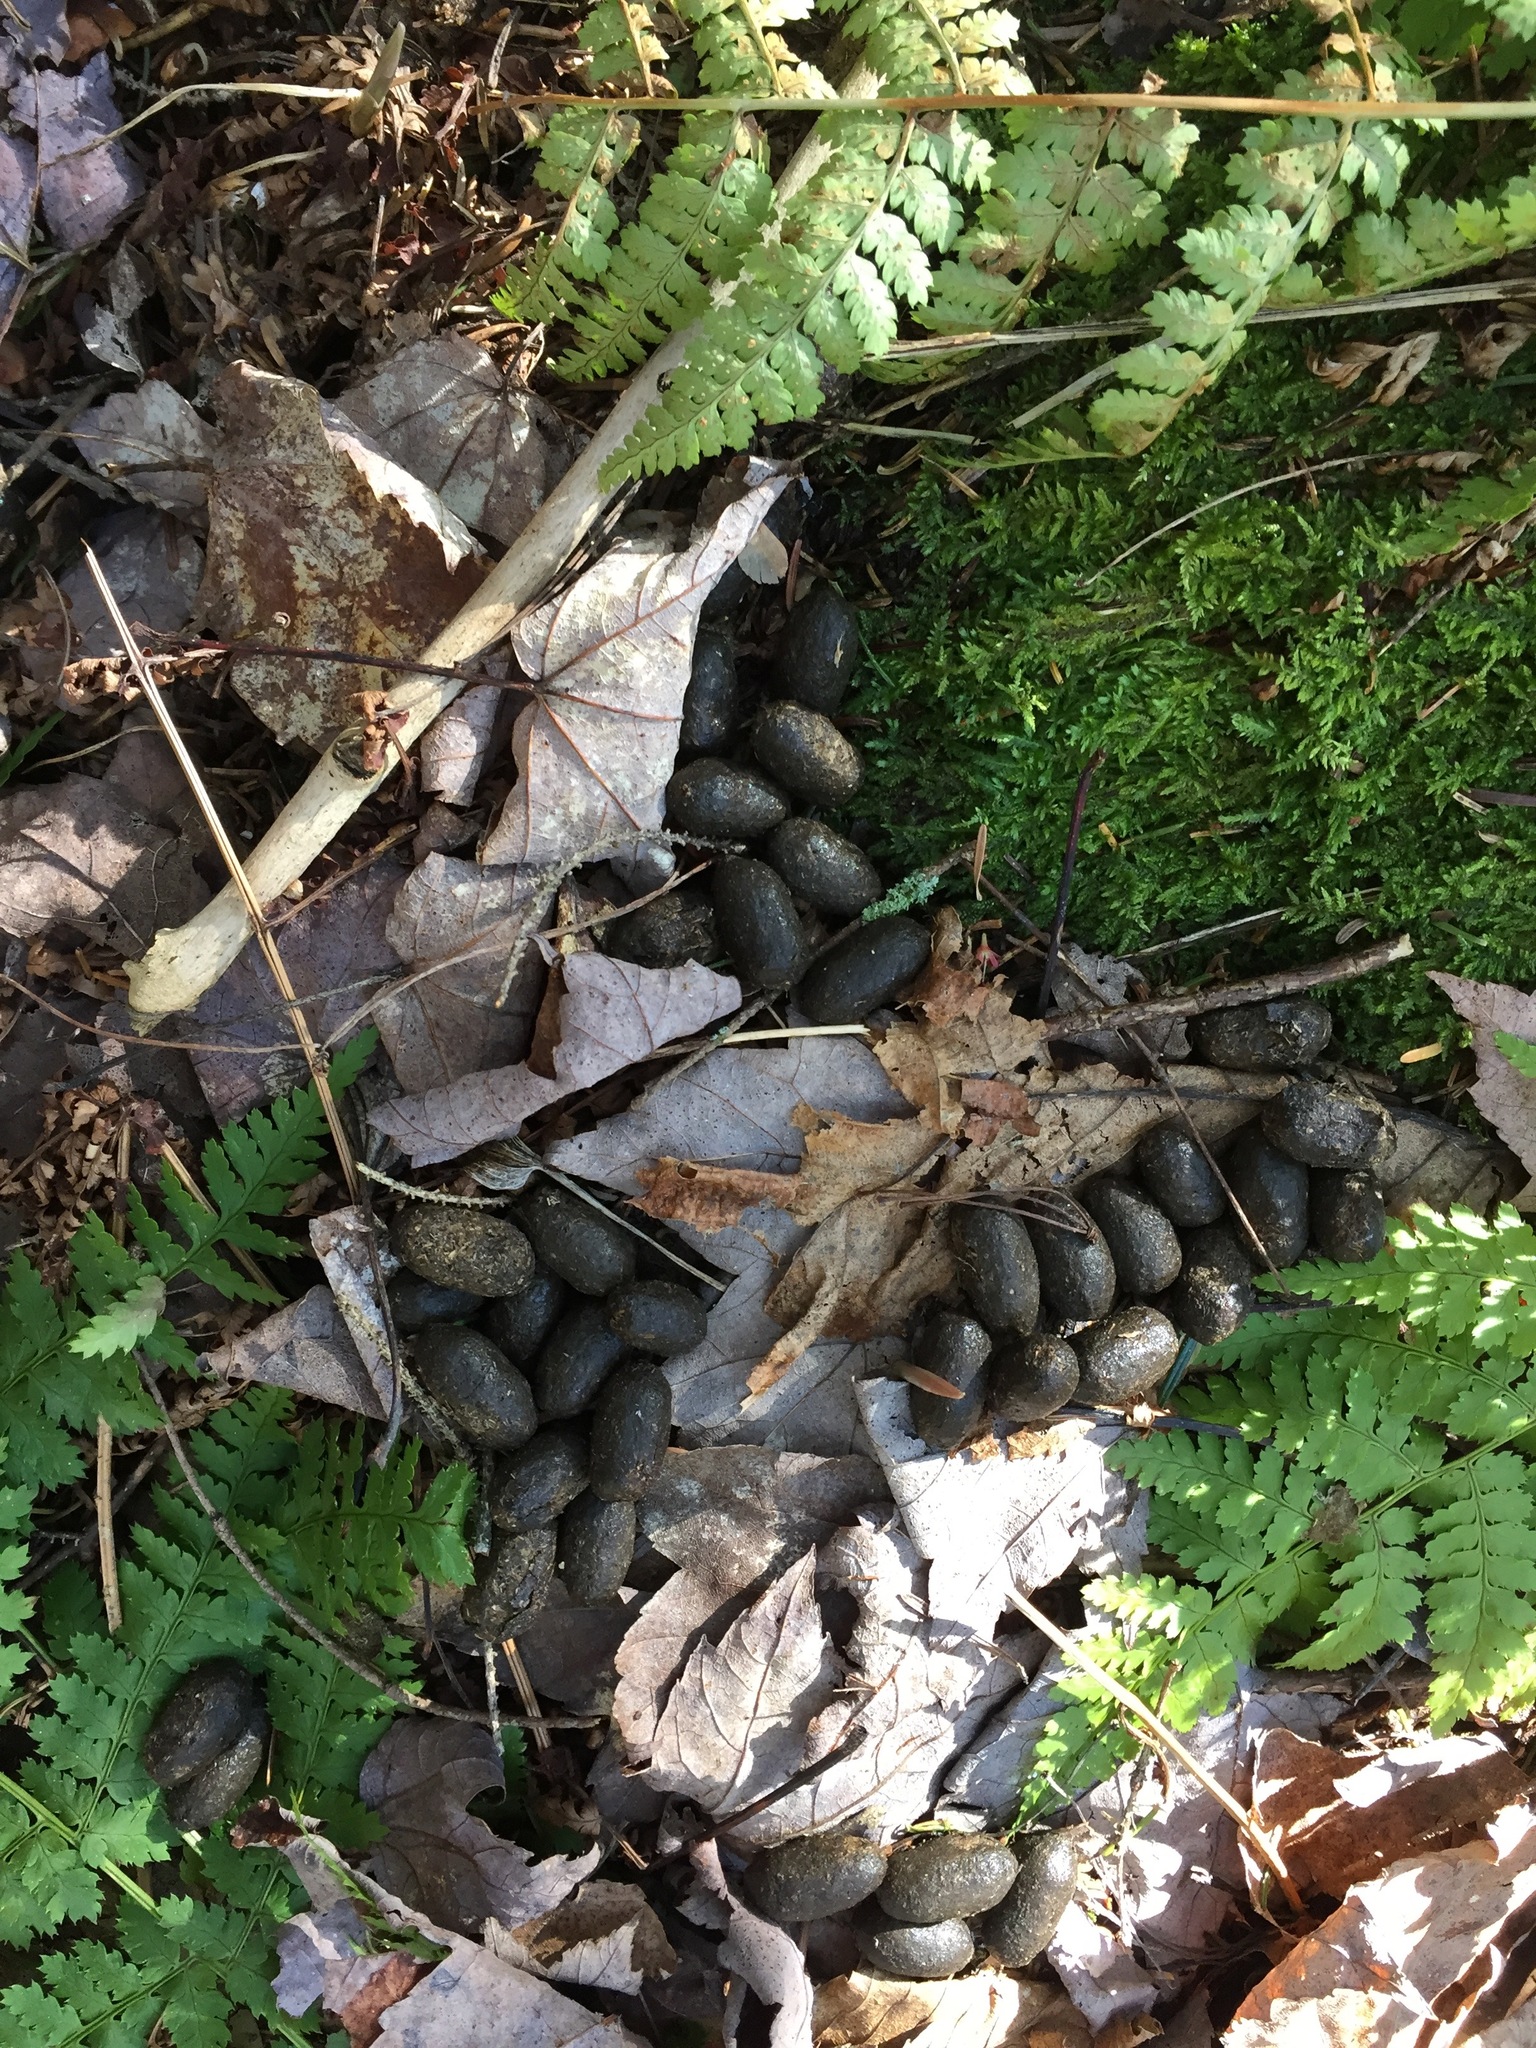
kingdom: Animalia
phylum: Chordata
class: Mammalia
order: Artiodactyla
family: Cervidae
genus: Alces
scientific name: Alces alces
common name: Moose
